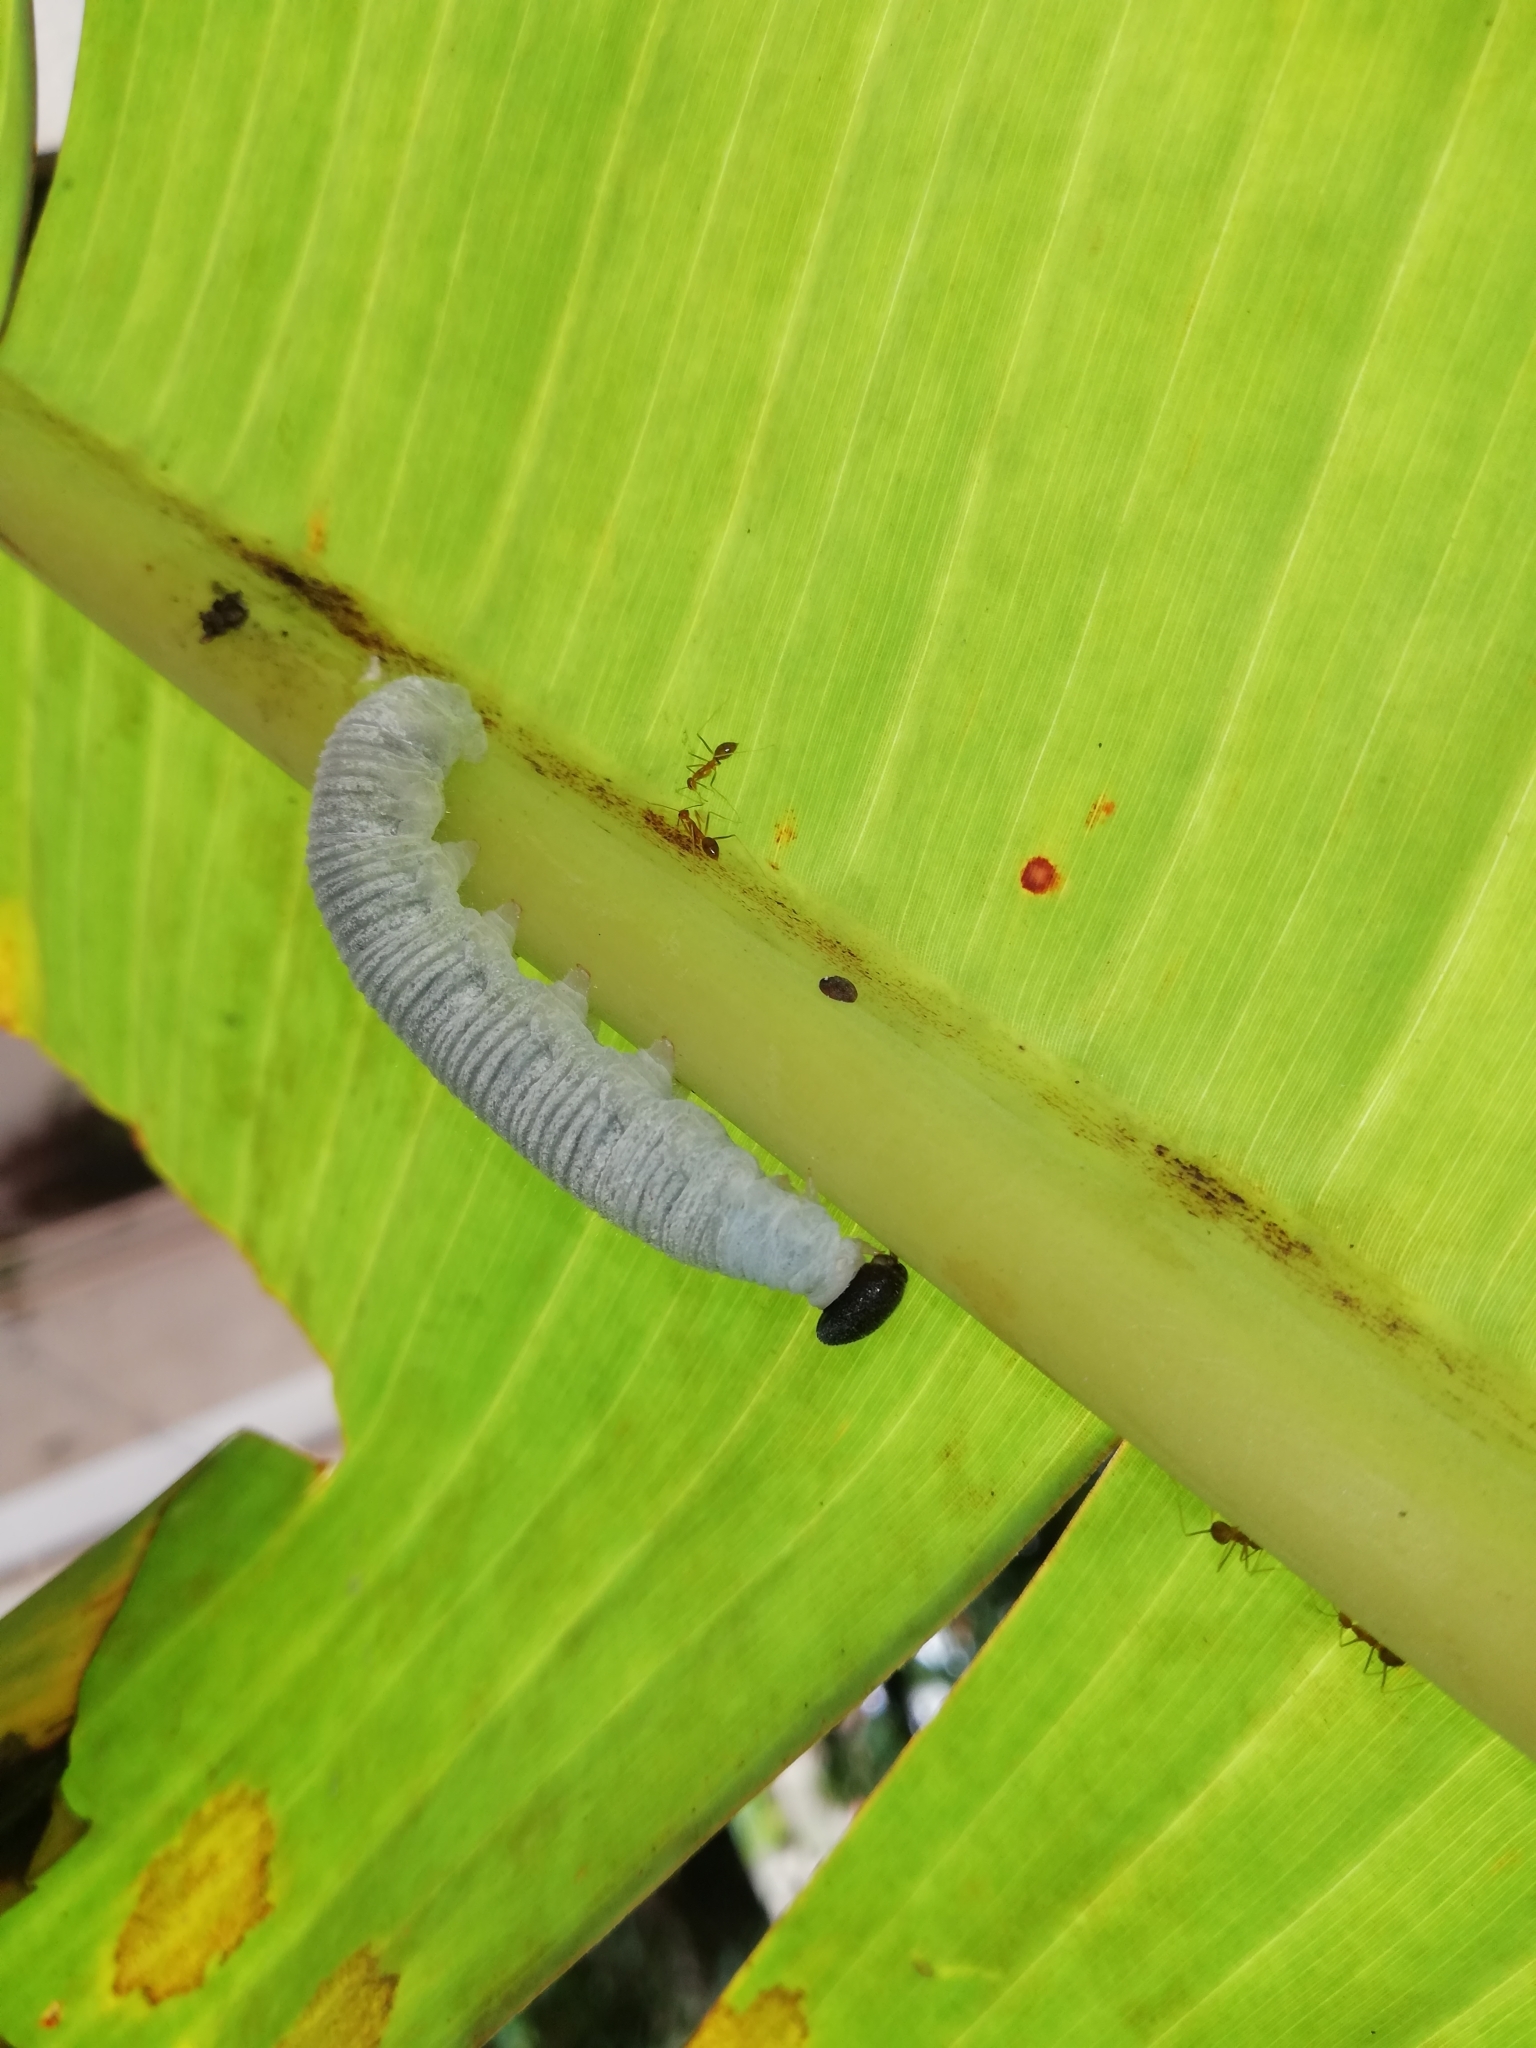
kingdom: Animalia
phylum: Arthropoda
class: Insecta
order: Lepidoptera
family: Hesperiidae
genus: Erionota
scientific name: Erionota torus
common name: Rounded palm-redeye
